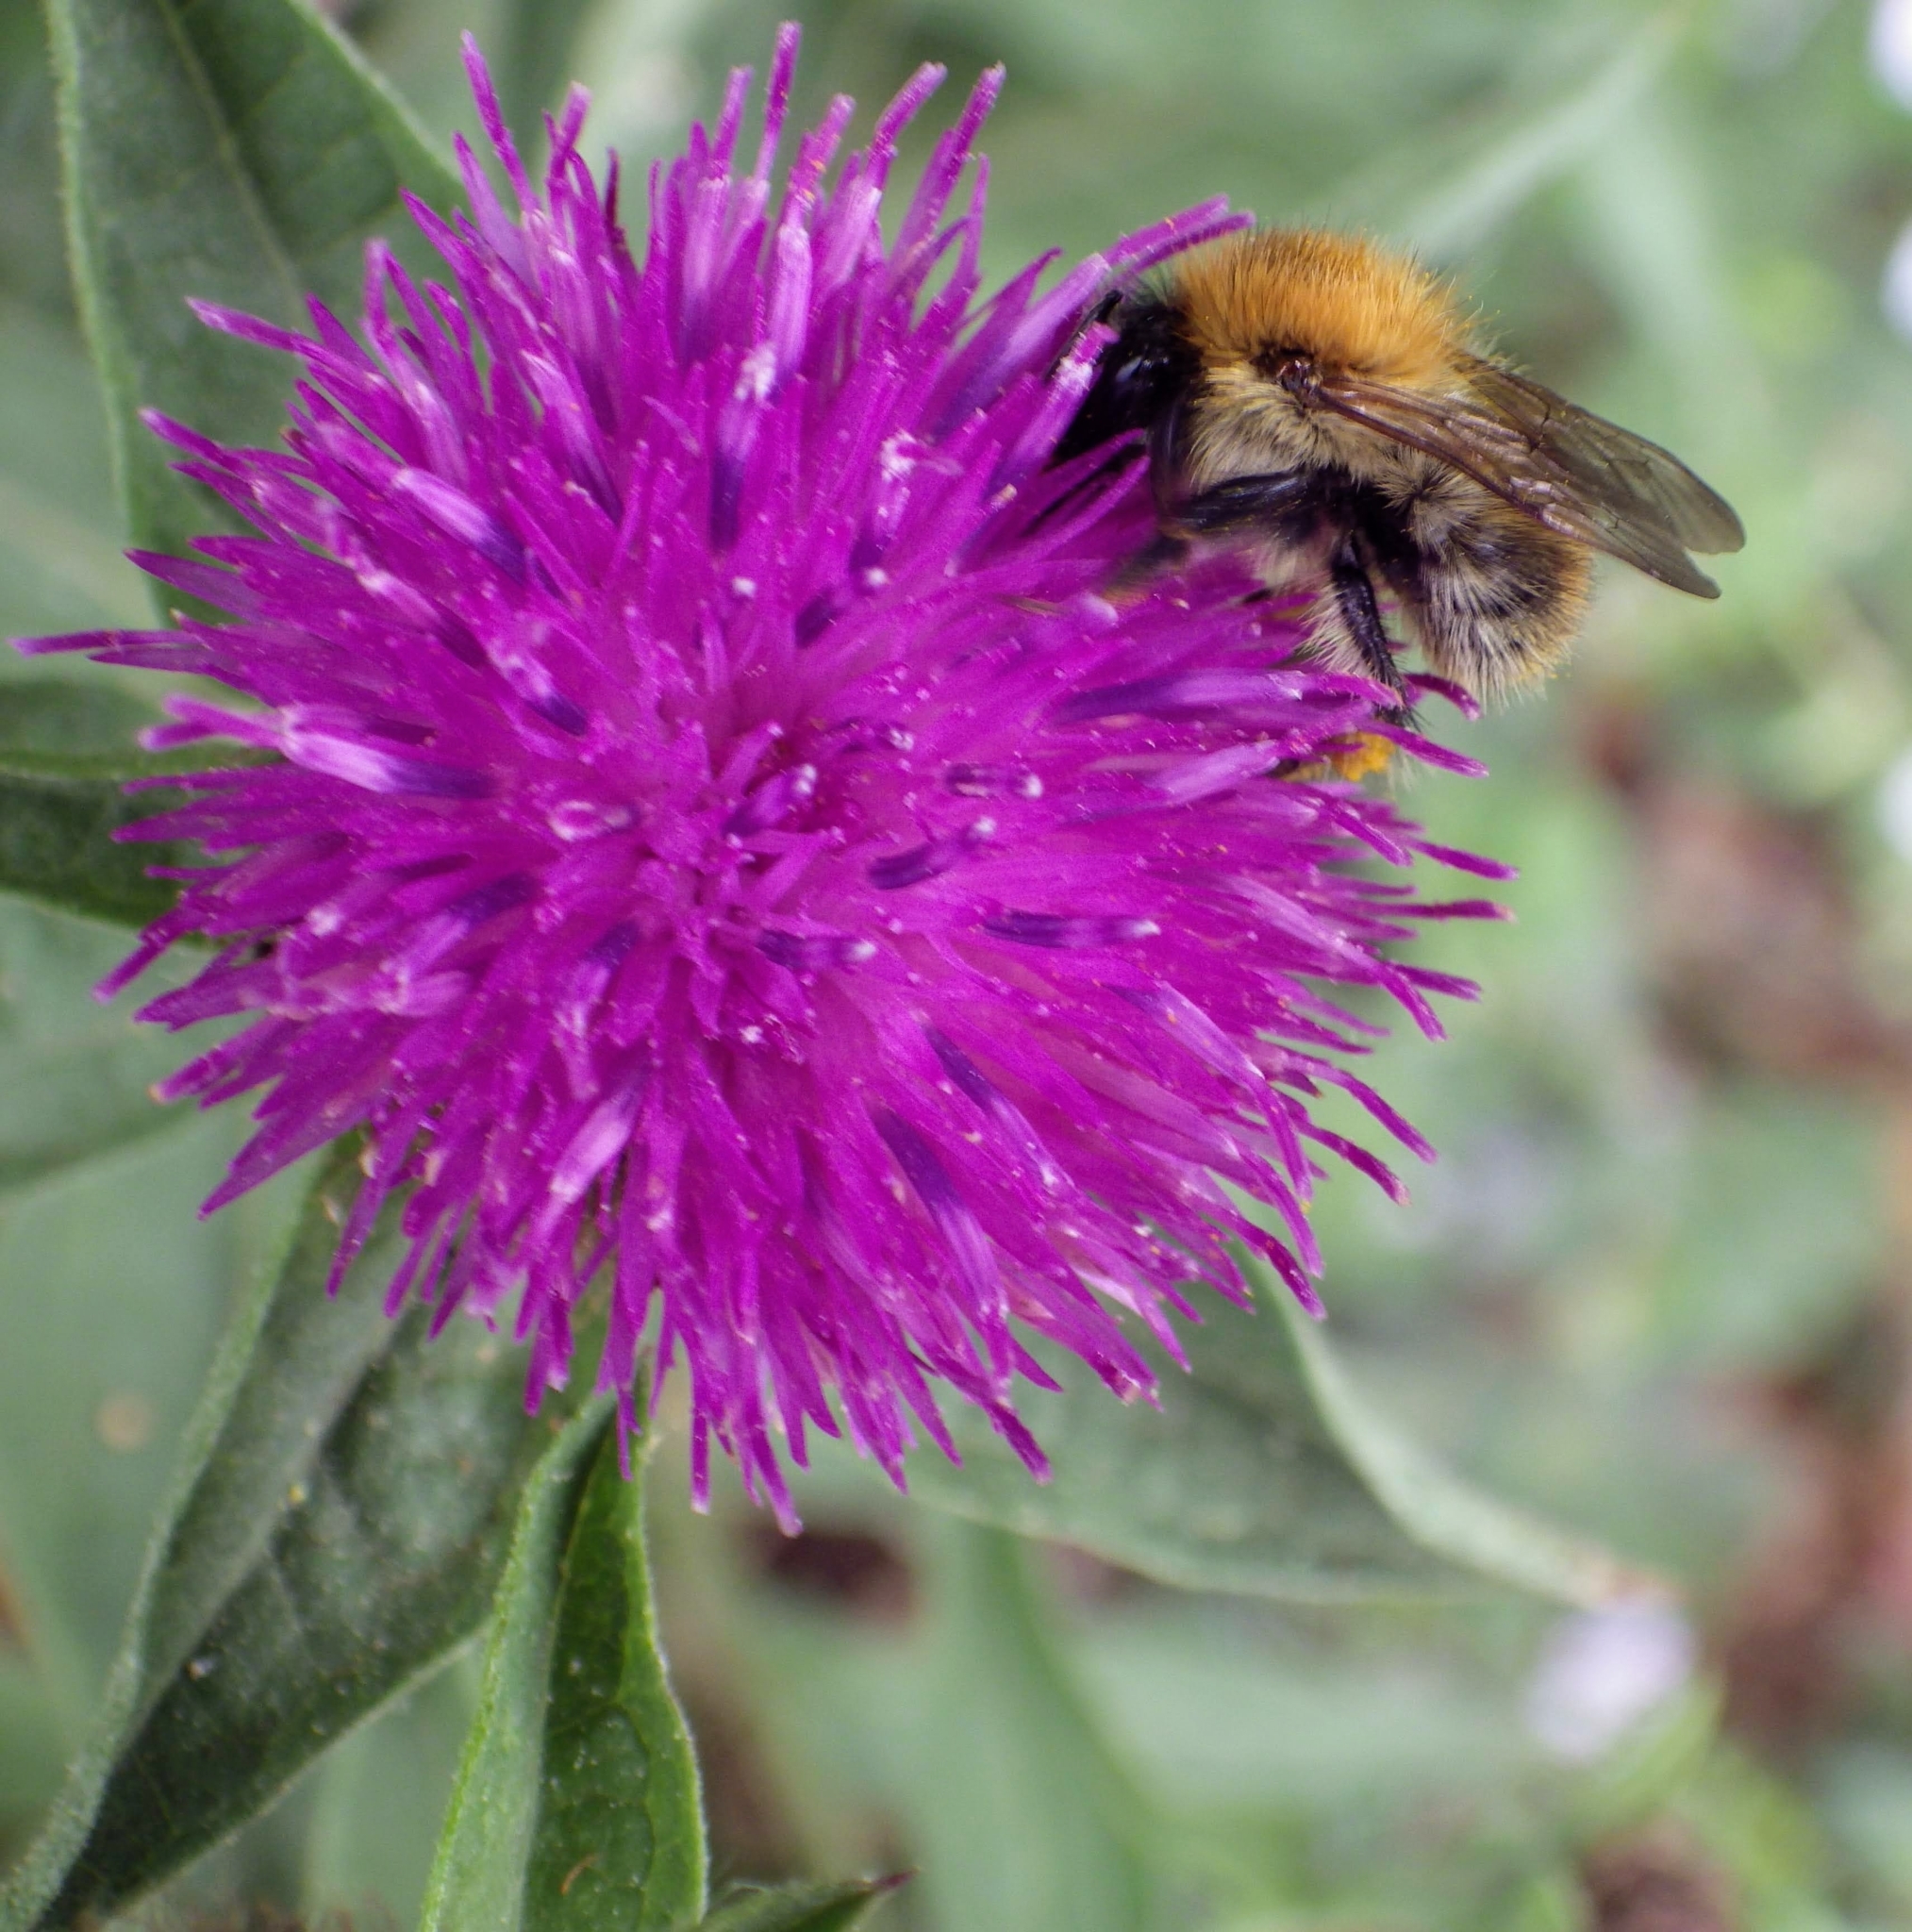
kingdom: Animalia
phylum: Arthropoda
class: Insecta
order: Hymenoptera
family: Apidae
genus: Bombus
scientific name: Bombus pascuorum
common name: Common carder bee
